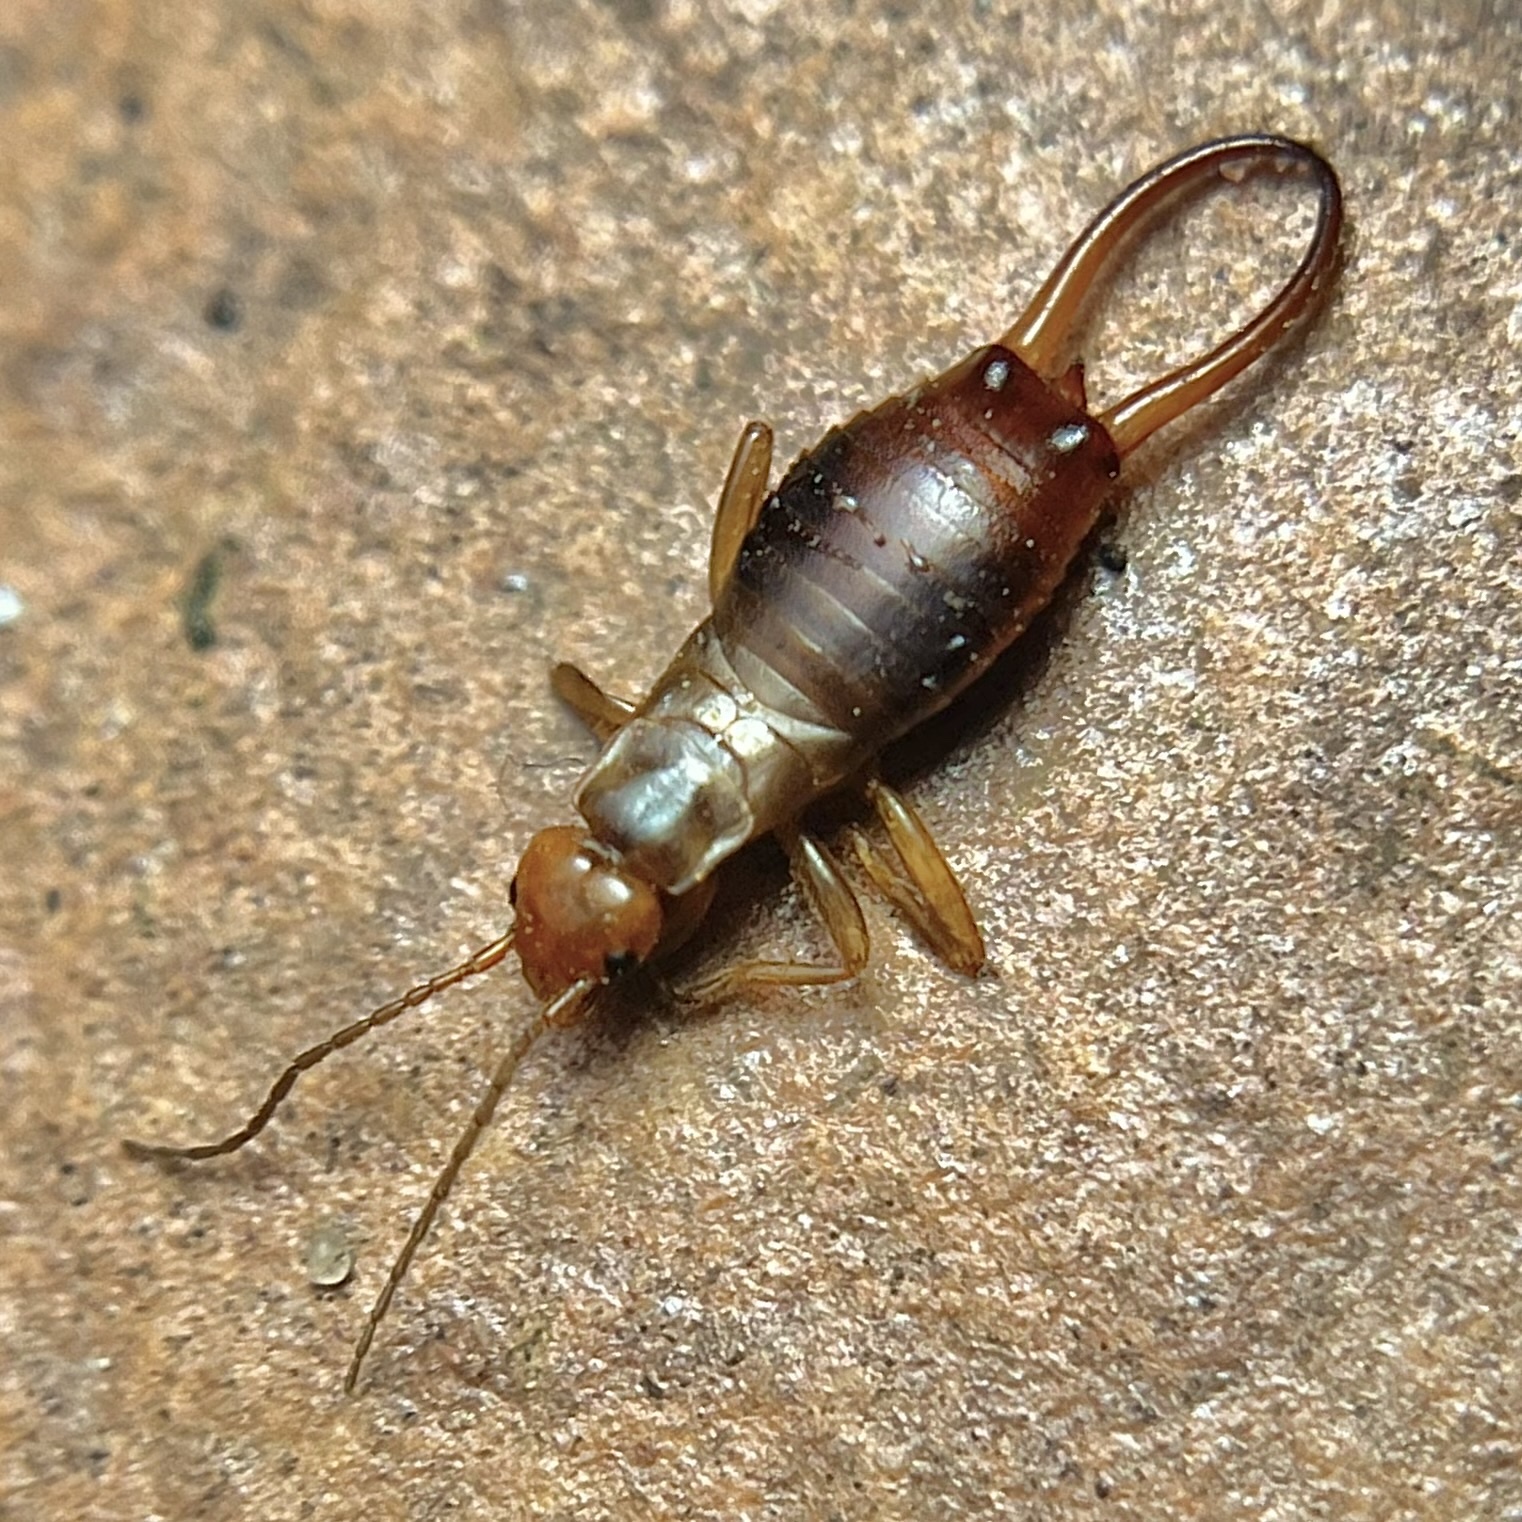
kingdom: Animalia
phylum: Arthropoda
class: Insecta
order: Dermaptera
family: Forficulidae
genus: Chelidurella
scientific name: Chelidurella acanthopygia
